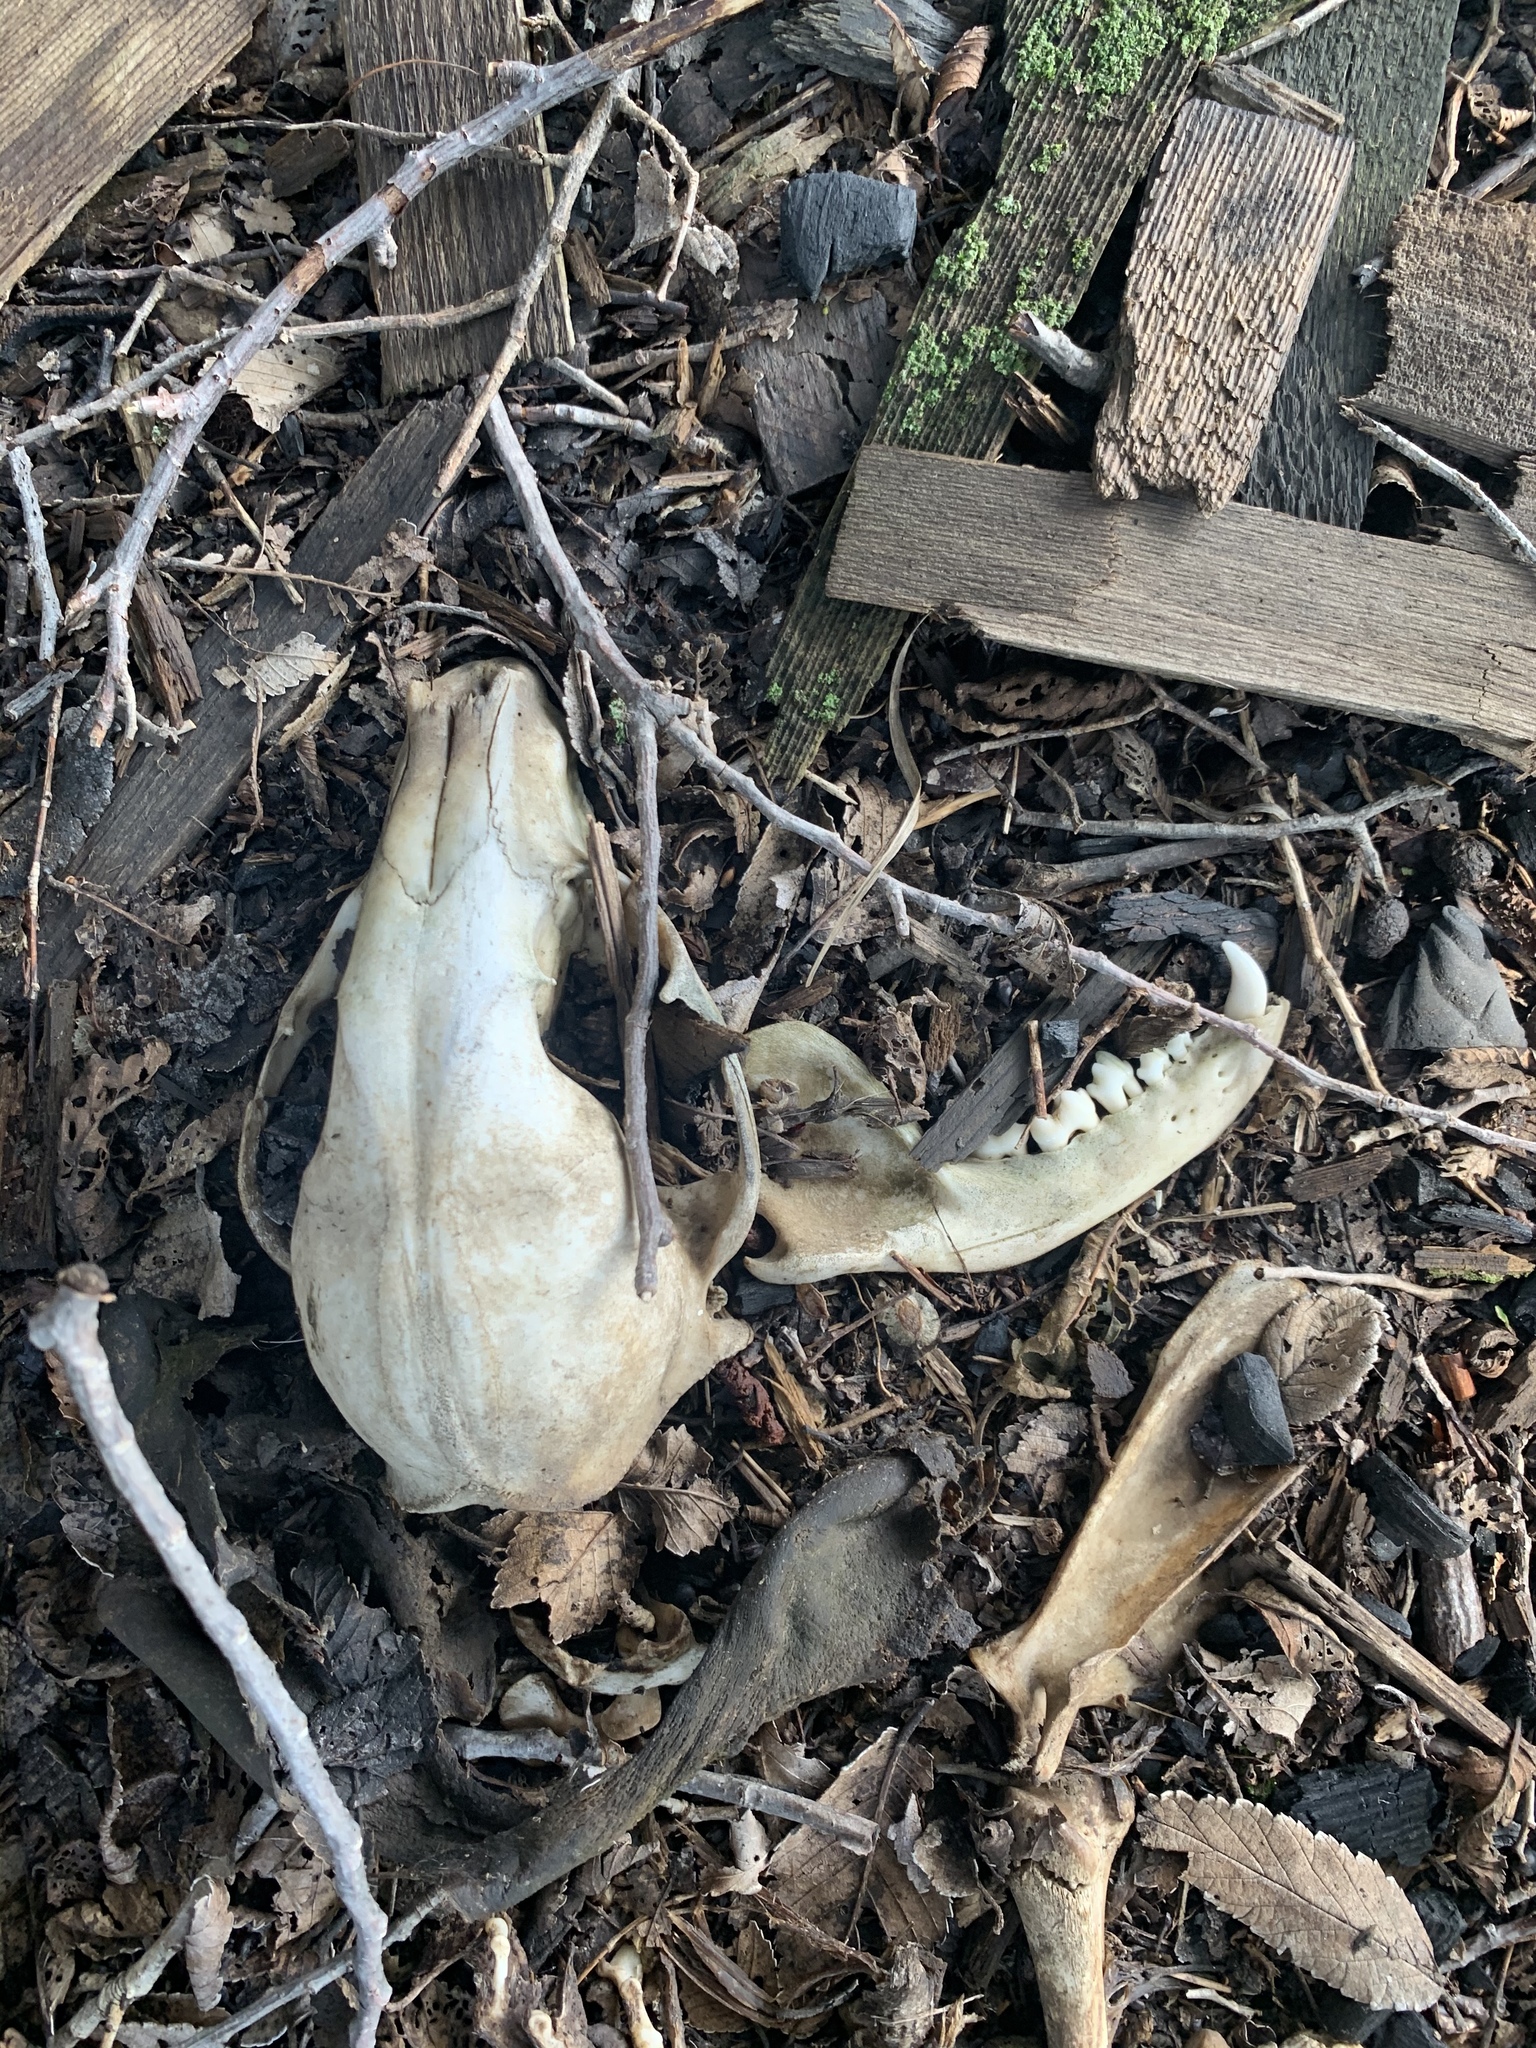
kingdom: Animalia
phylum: Chordata
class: Mammalia
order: Carnivora
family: Procyonidae
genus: Procyon
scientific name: Procyon lotor
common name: Raccoon
